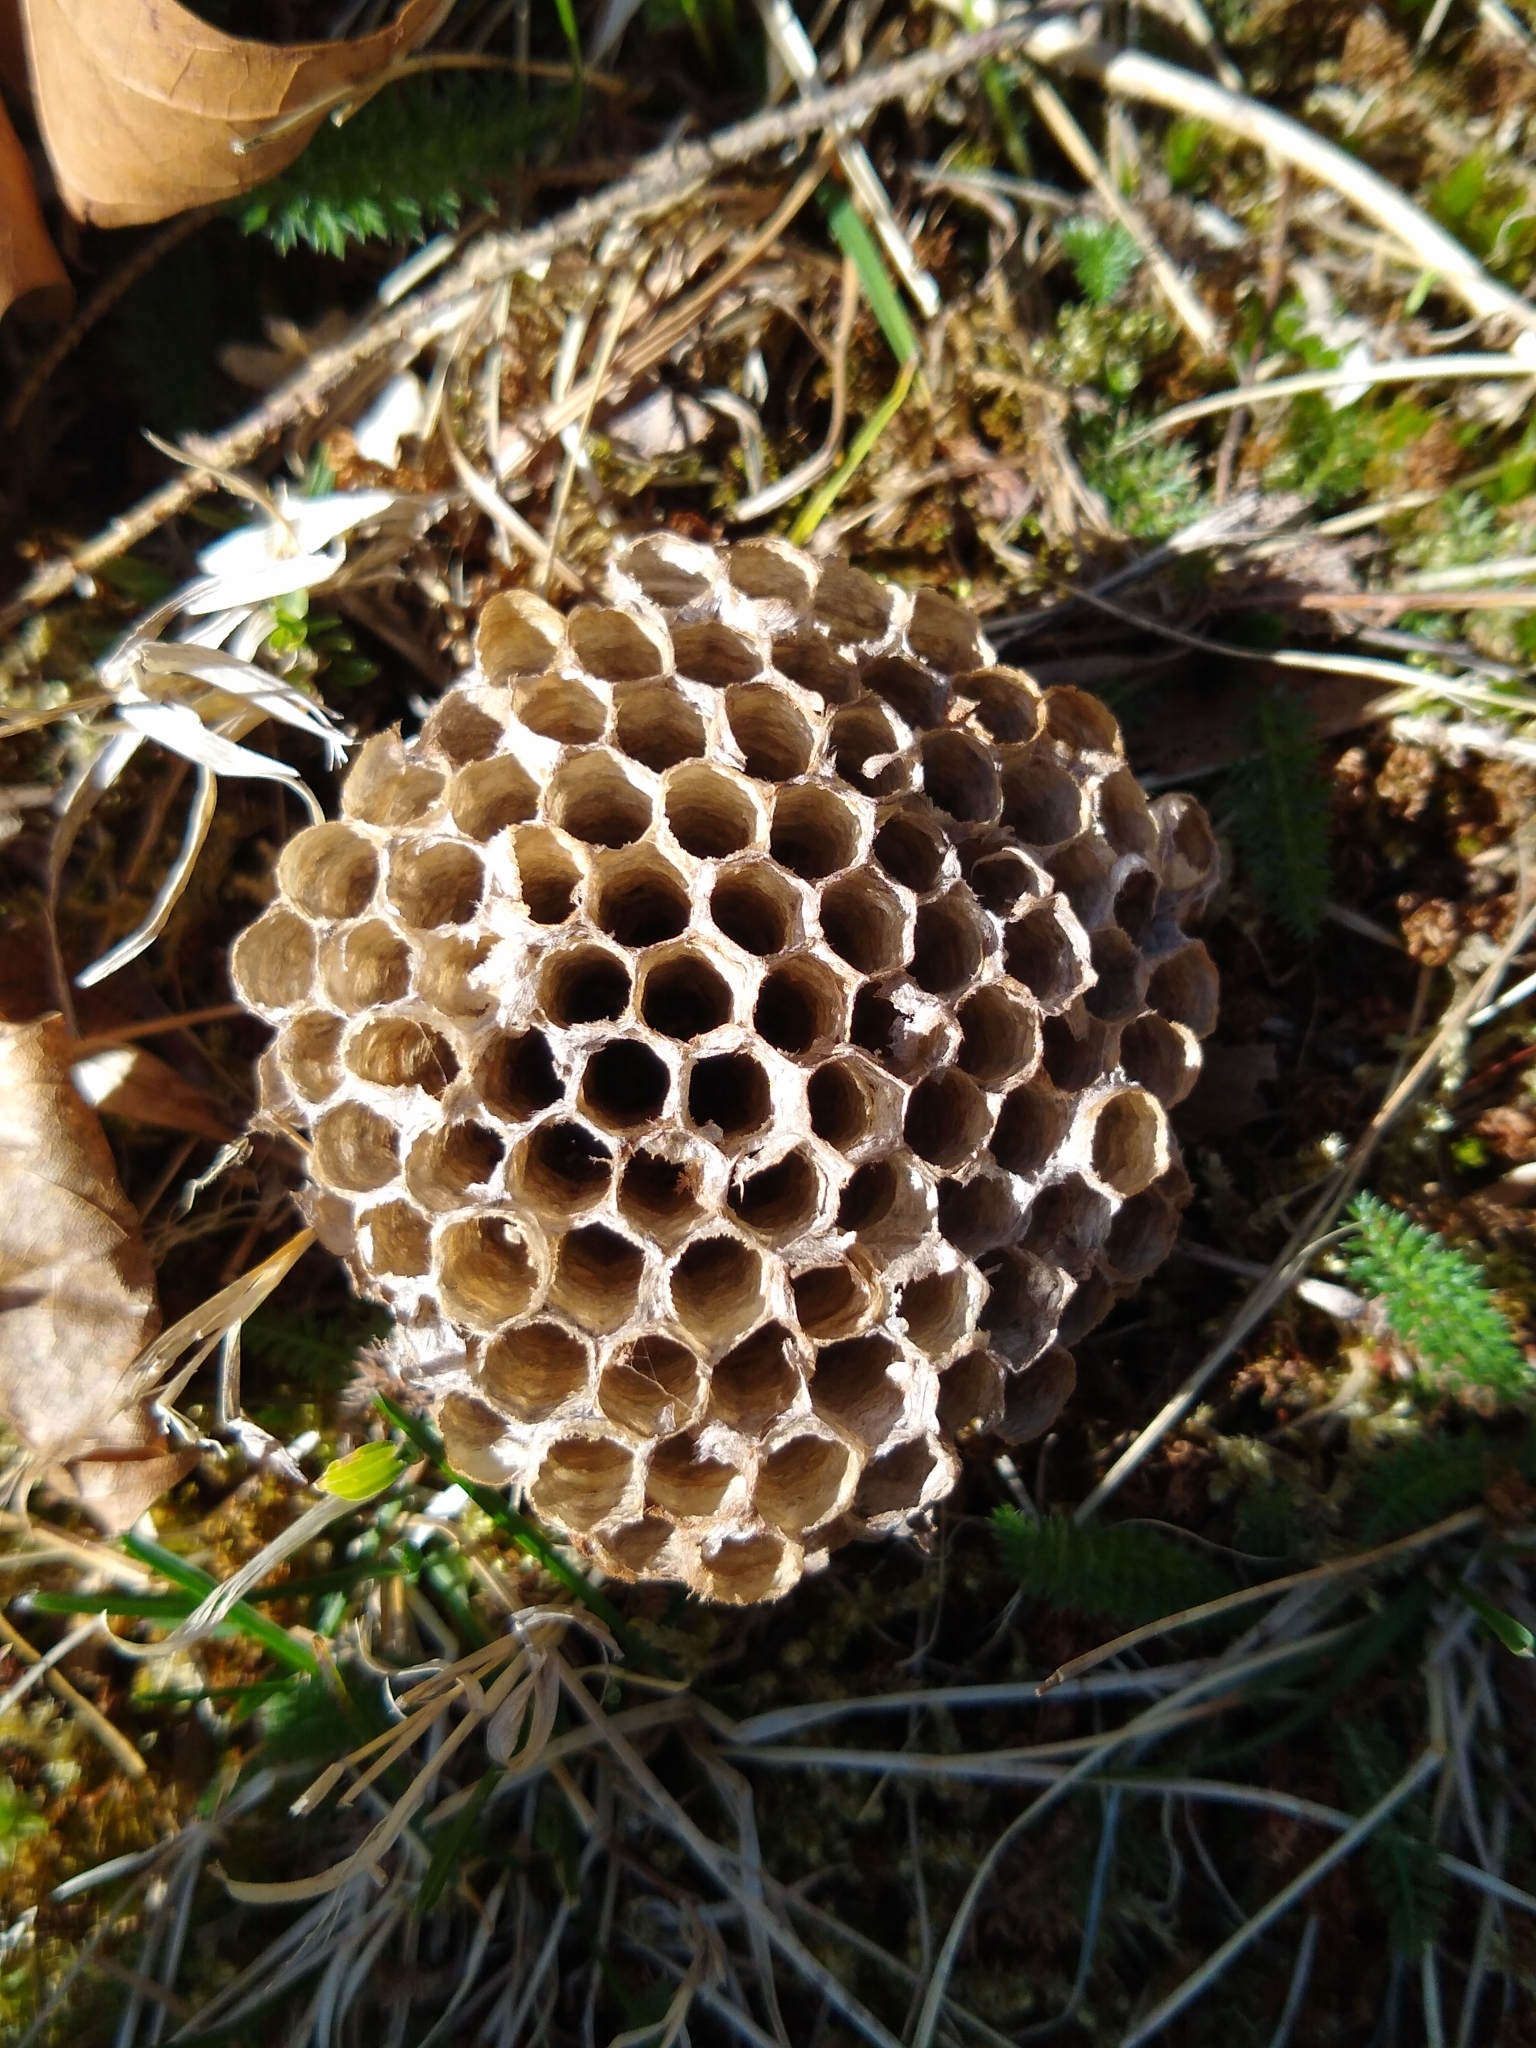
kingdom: Animalia
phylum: Arthropoda
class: Insecta
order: Hymenoptera
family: Eumenidae
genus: Polistes
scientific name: Polistes
